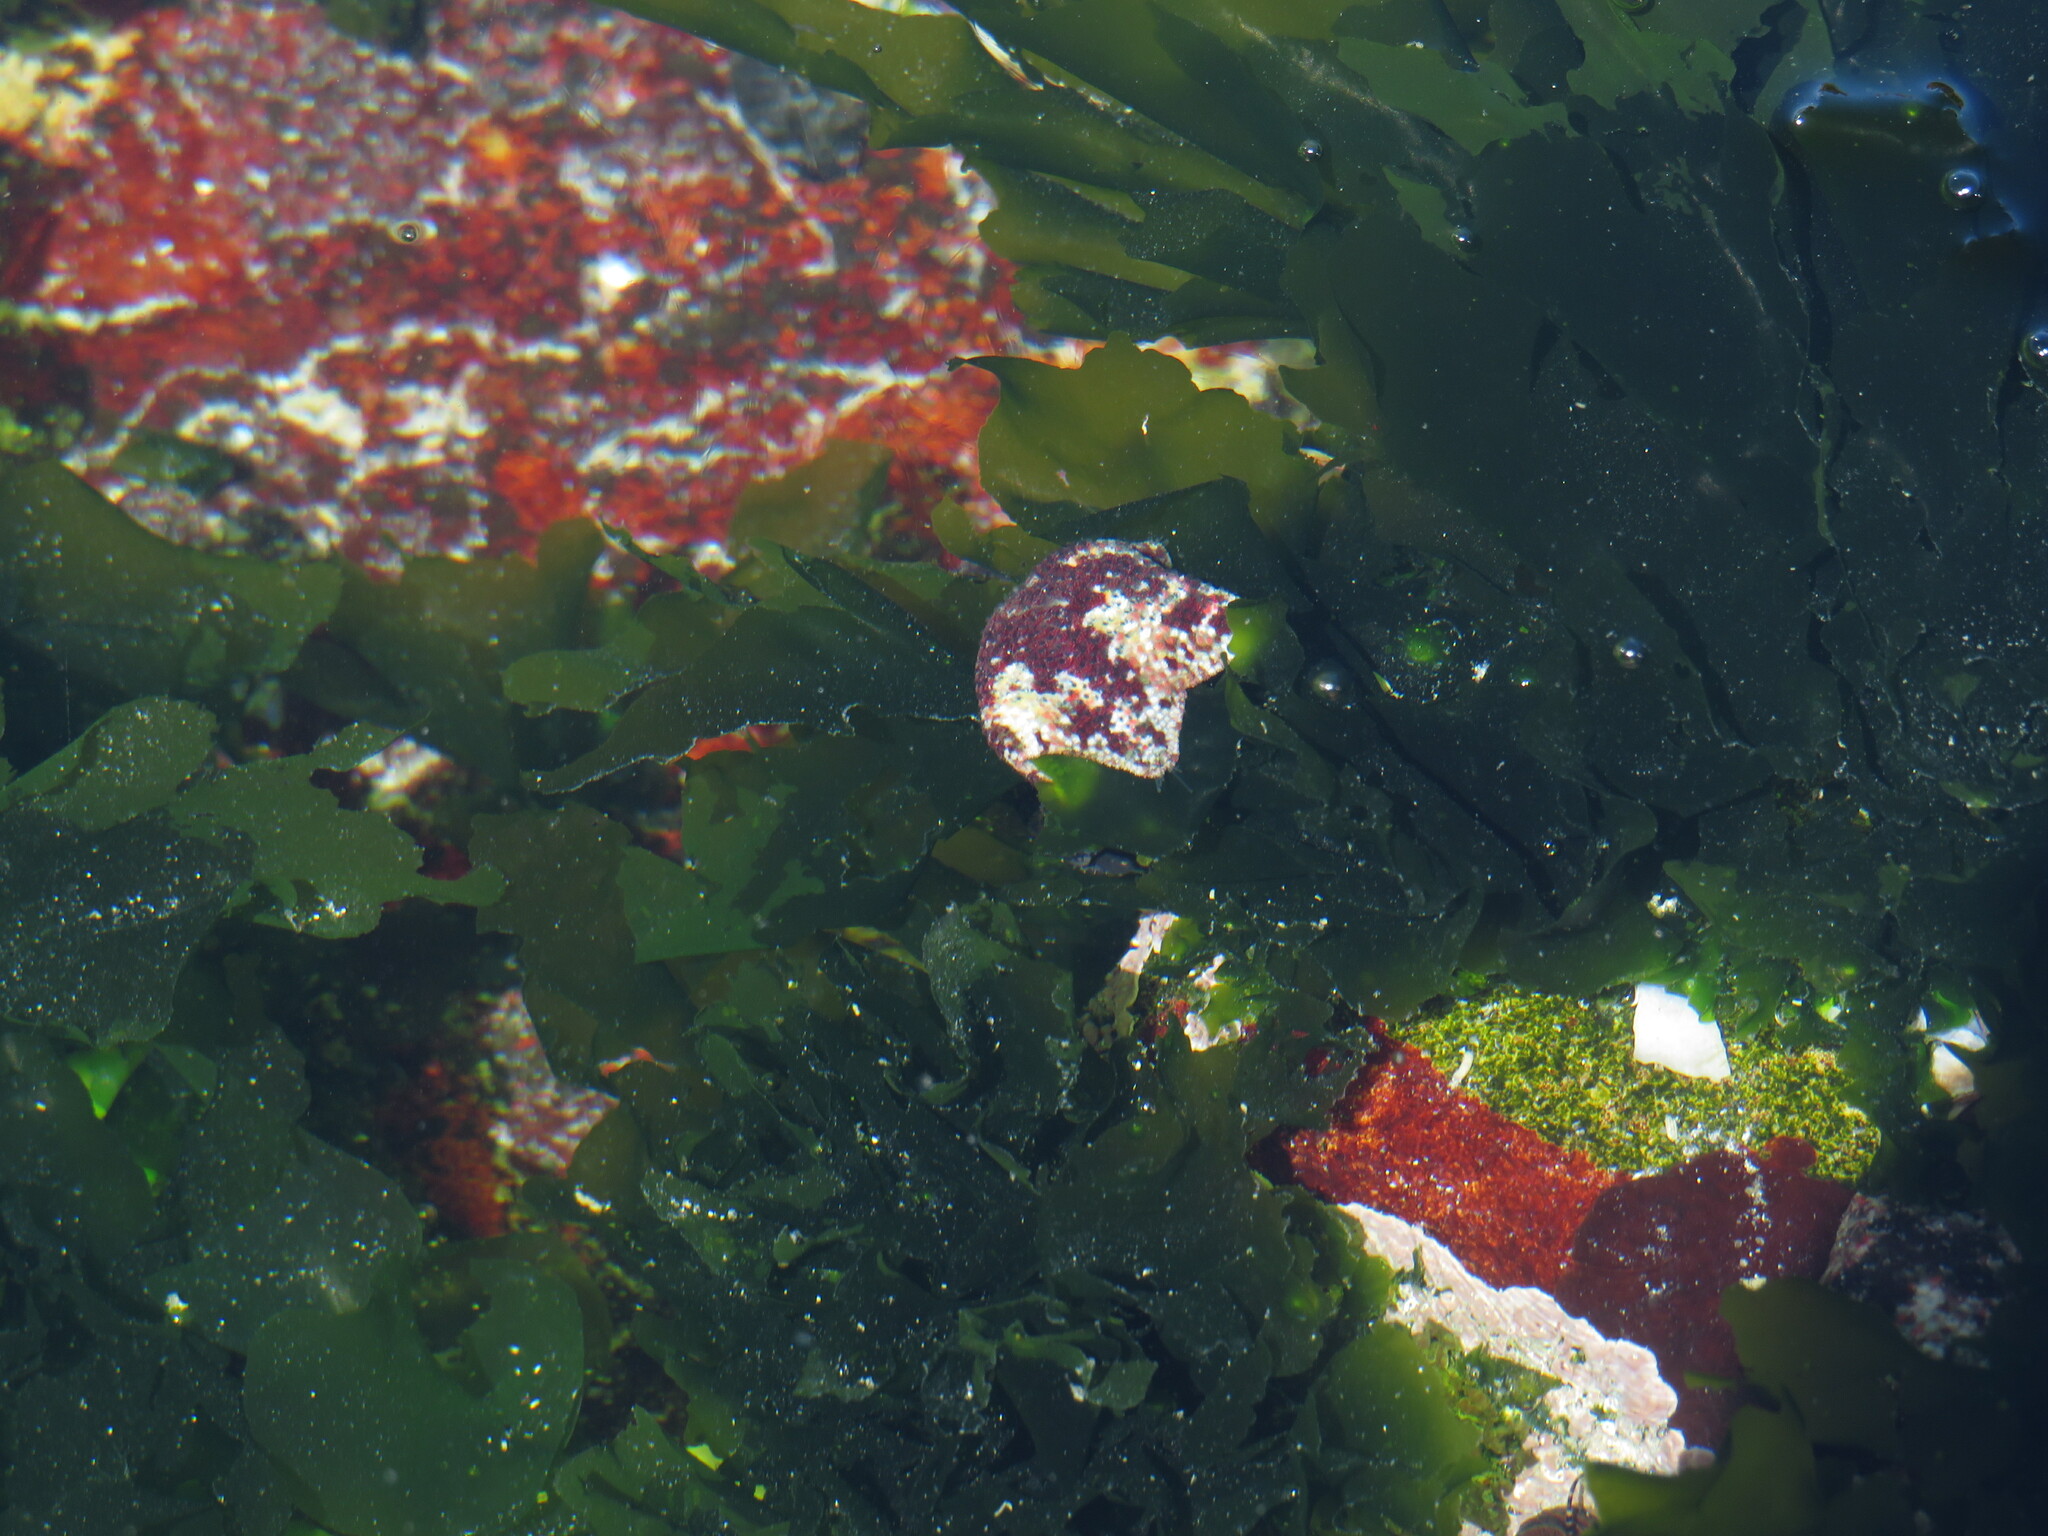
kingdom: Plantae
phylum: Chlorophyta
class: Ulvophyceae
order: Ulvales
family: Ulvaceae
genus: Ulva
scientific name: Ulva lactuca
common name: Sea lettuce
